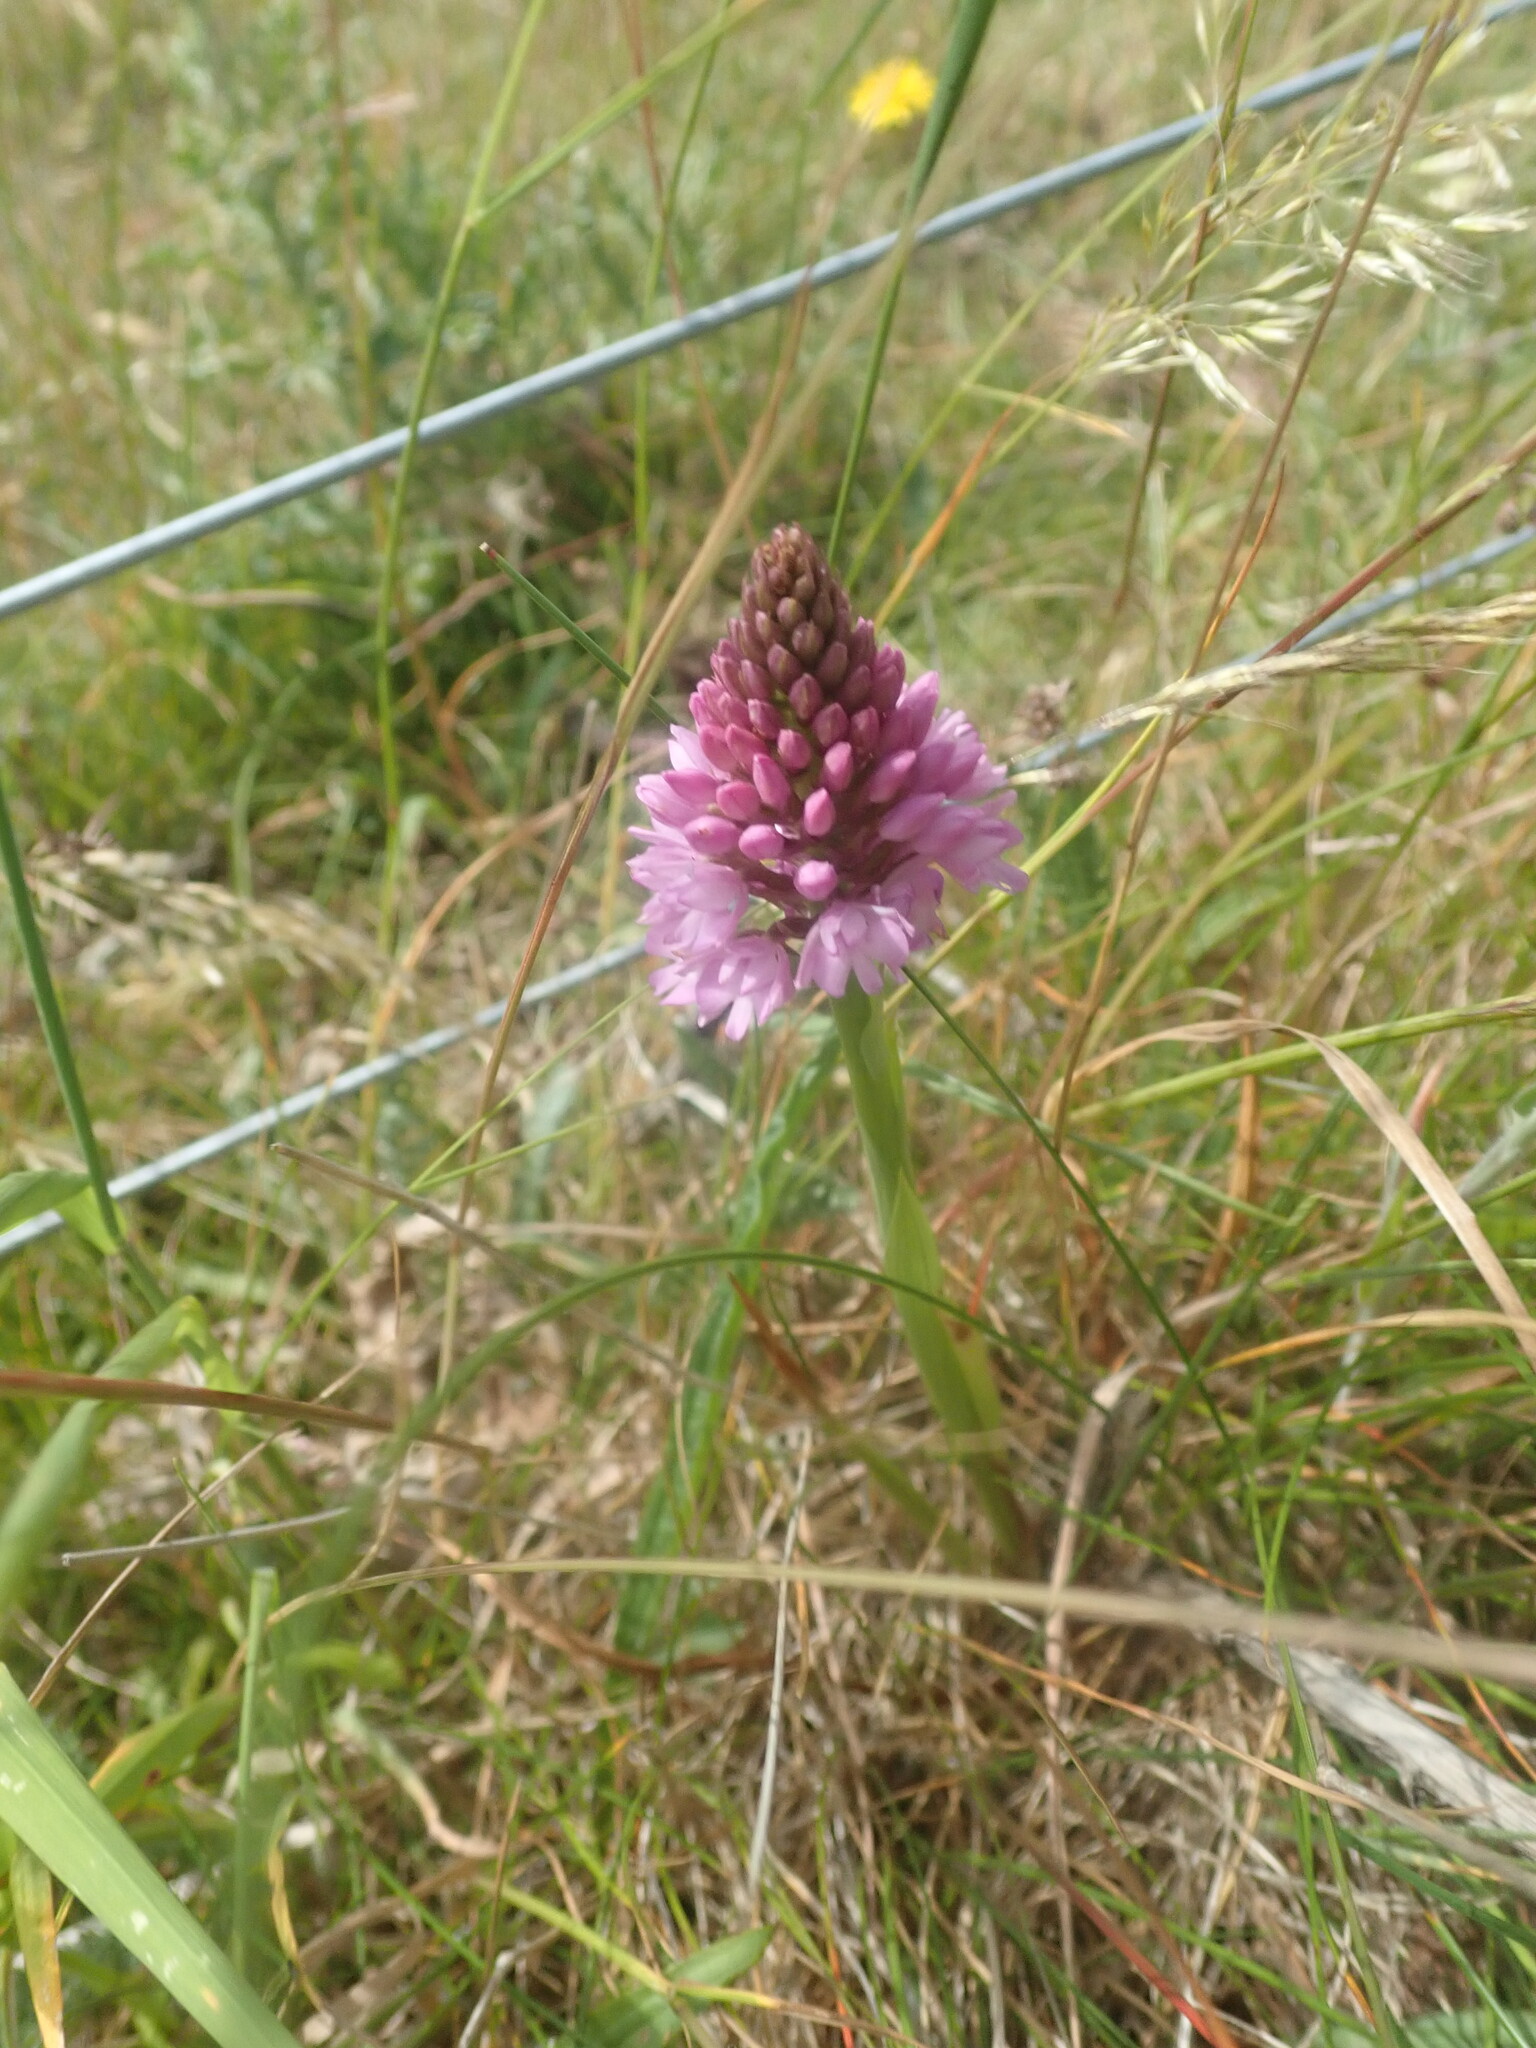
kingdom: Plantae
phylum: Tracheophyta
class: Liliopsida
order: Asparagales
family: Orchidaceae
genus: Anacamptis
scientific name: Anacamptis pyramidalis
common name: Pyramidal orchid
